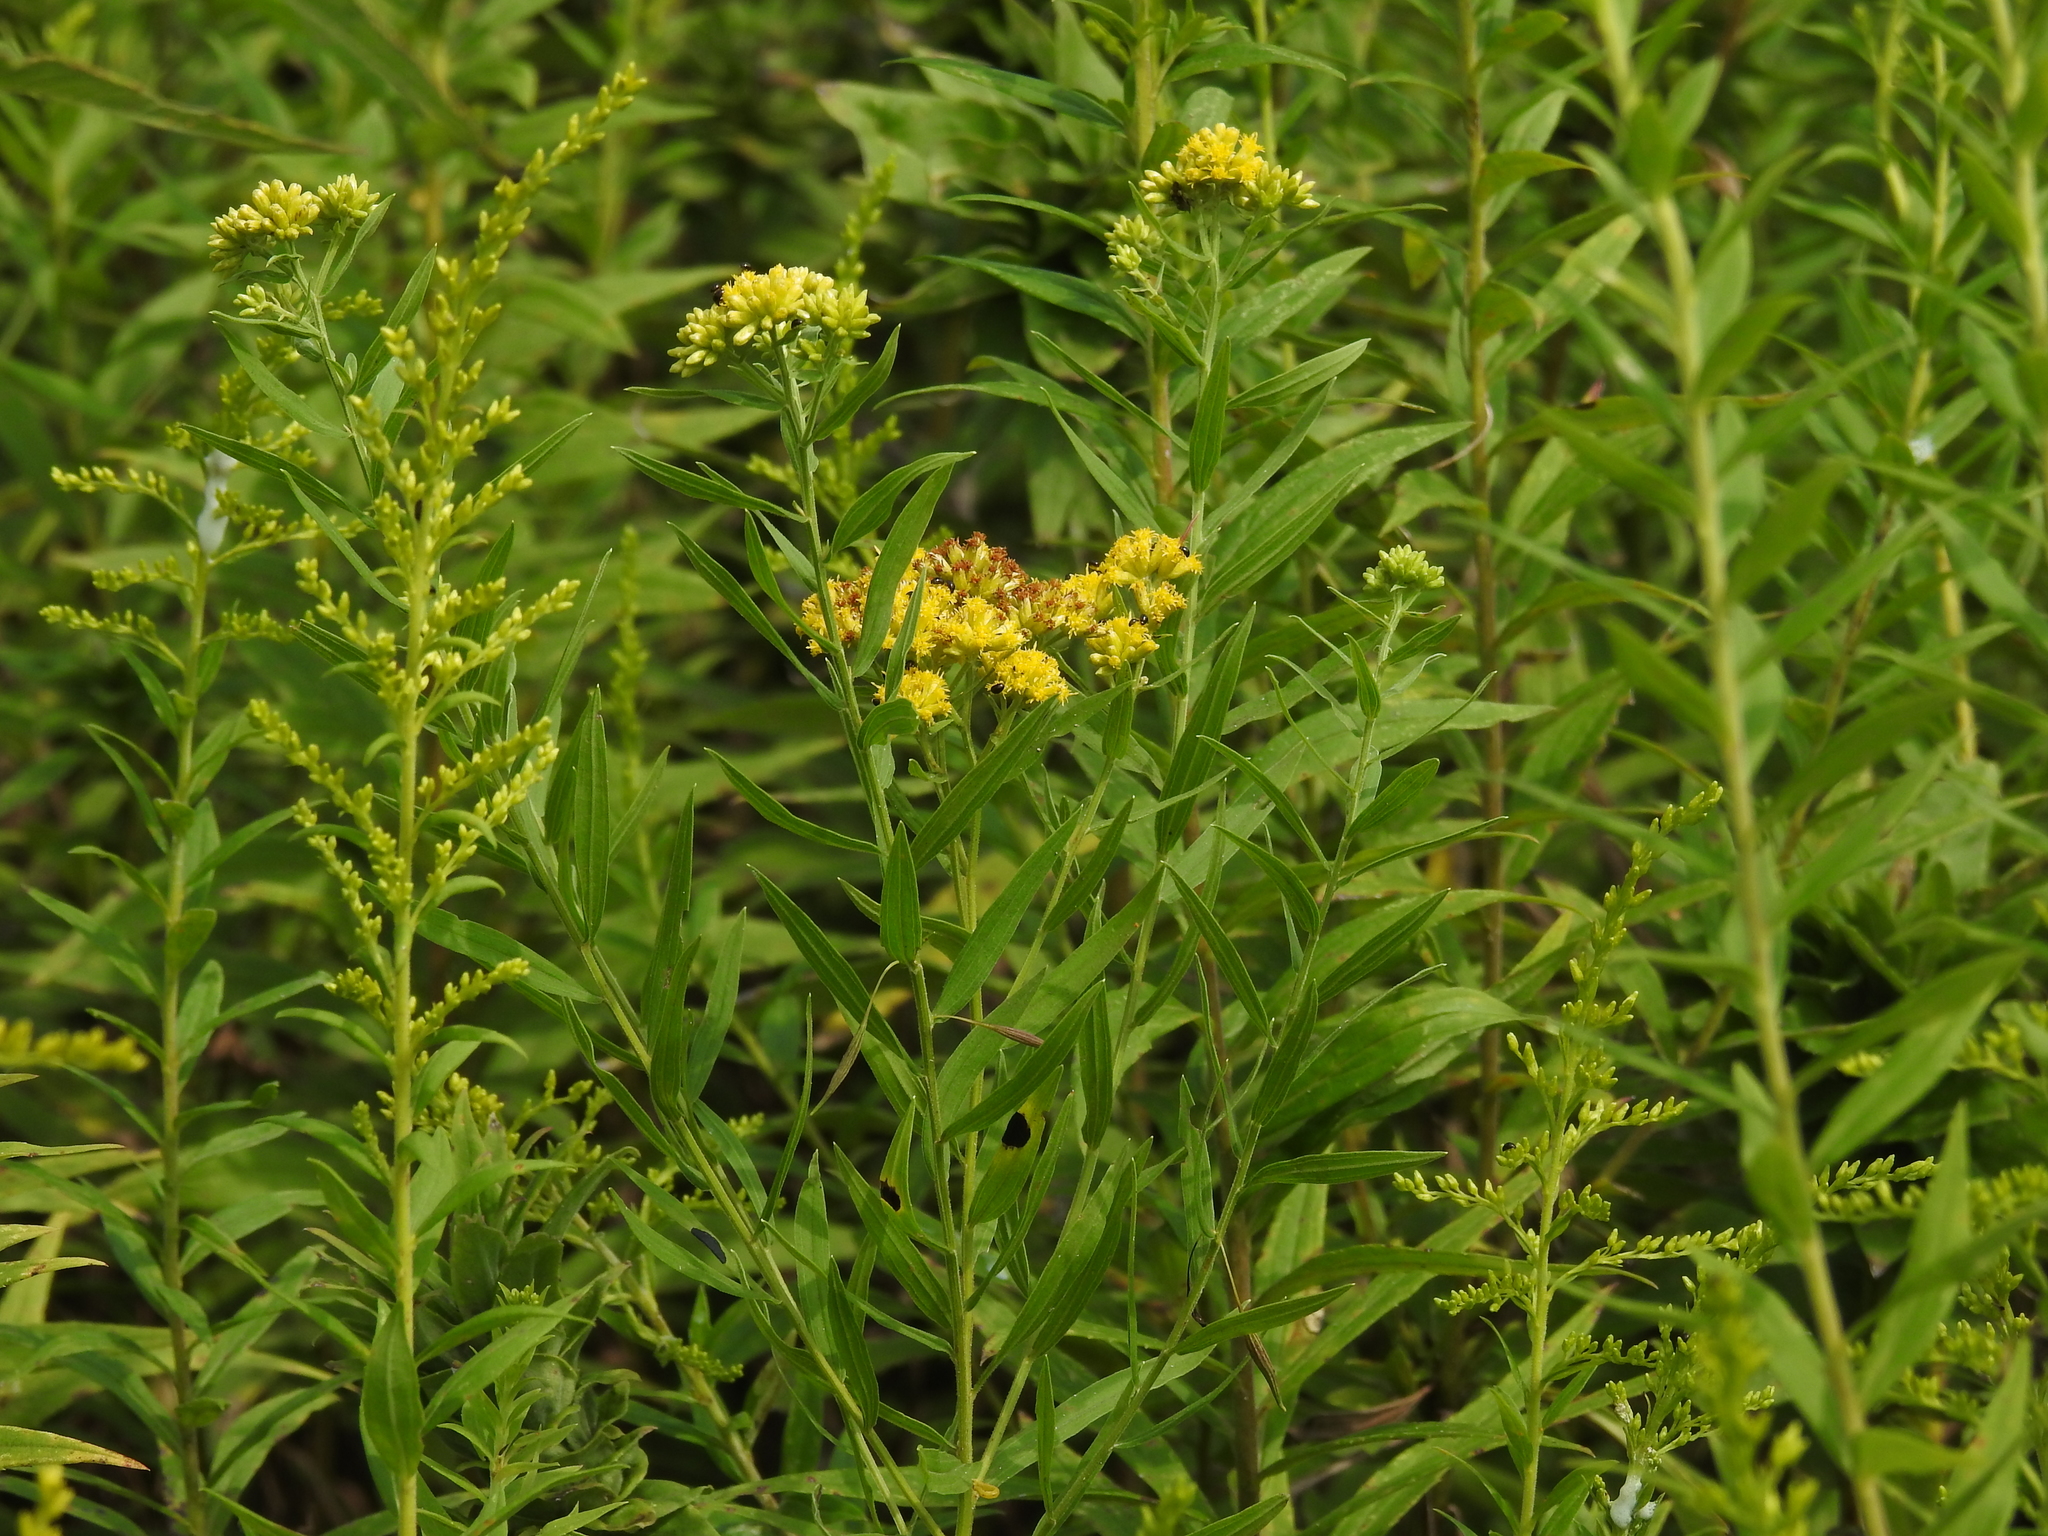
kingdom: Plantae
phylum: Tracheophyta
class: Magnoliopsida
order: Asterales
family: Asteraceae
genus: Euthamia
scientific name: Euthamia graminifolia
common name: Common goldentop
